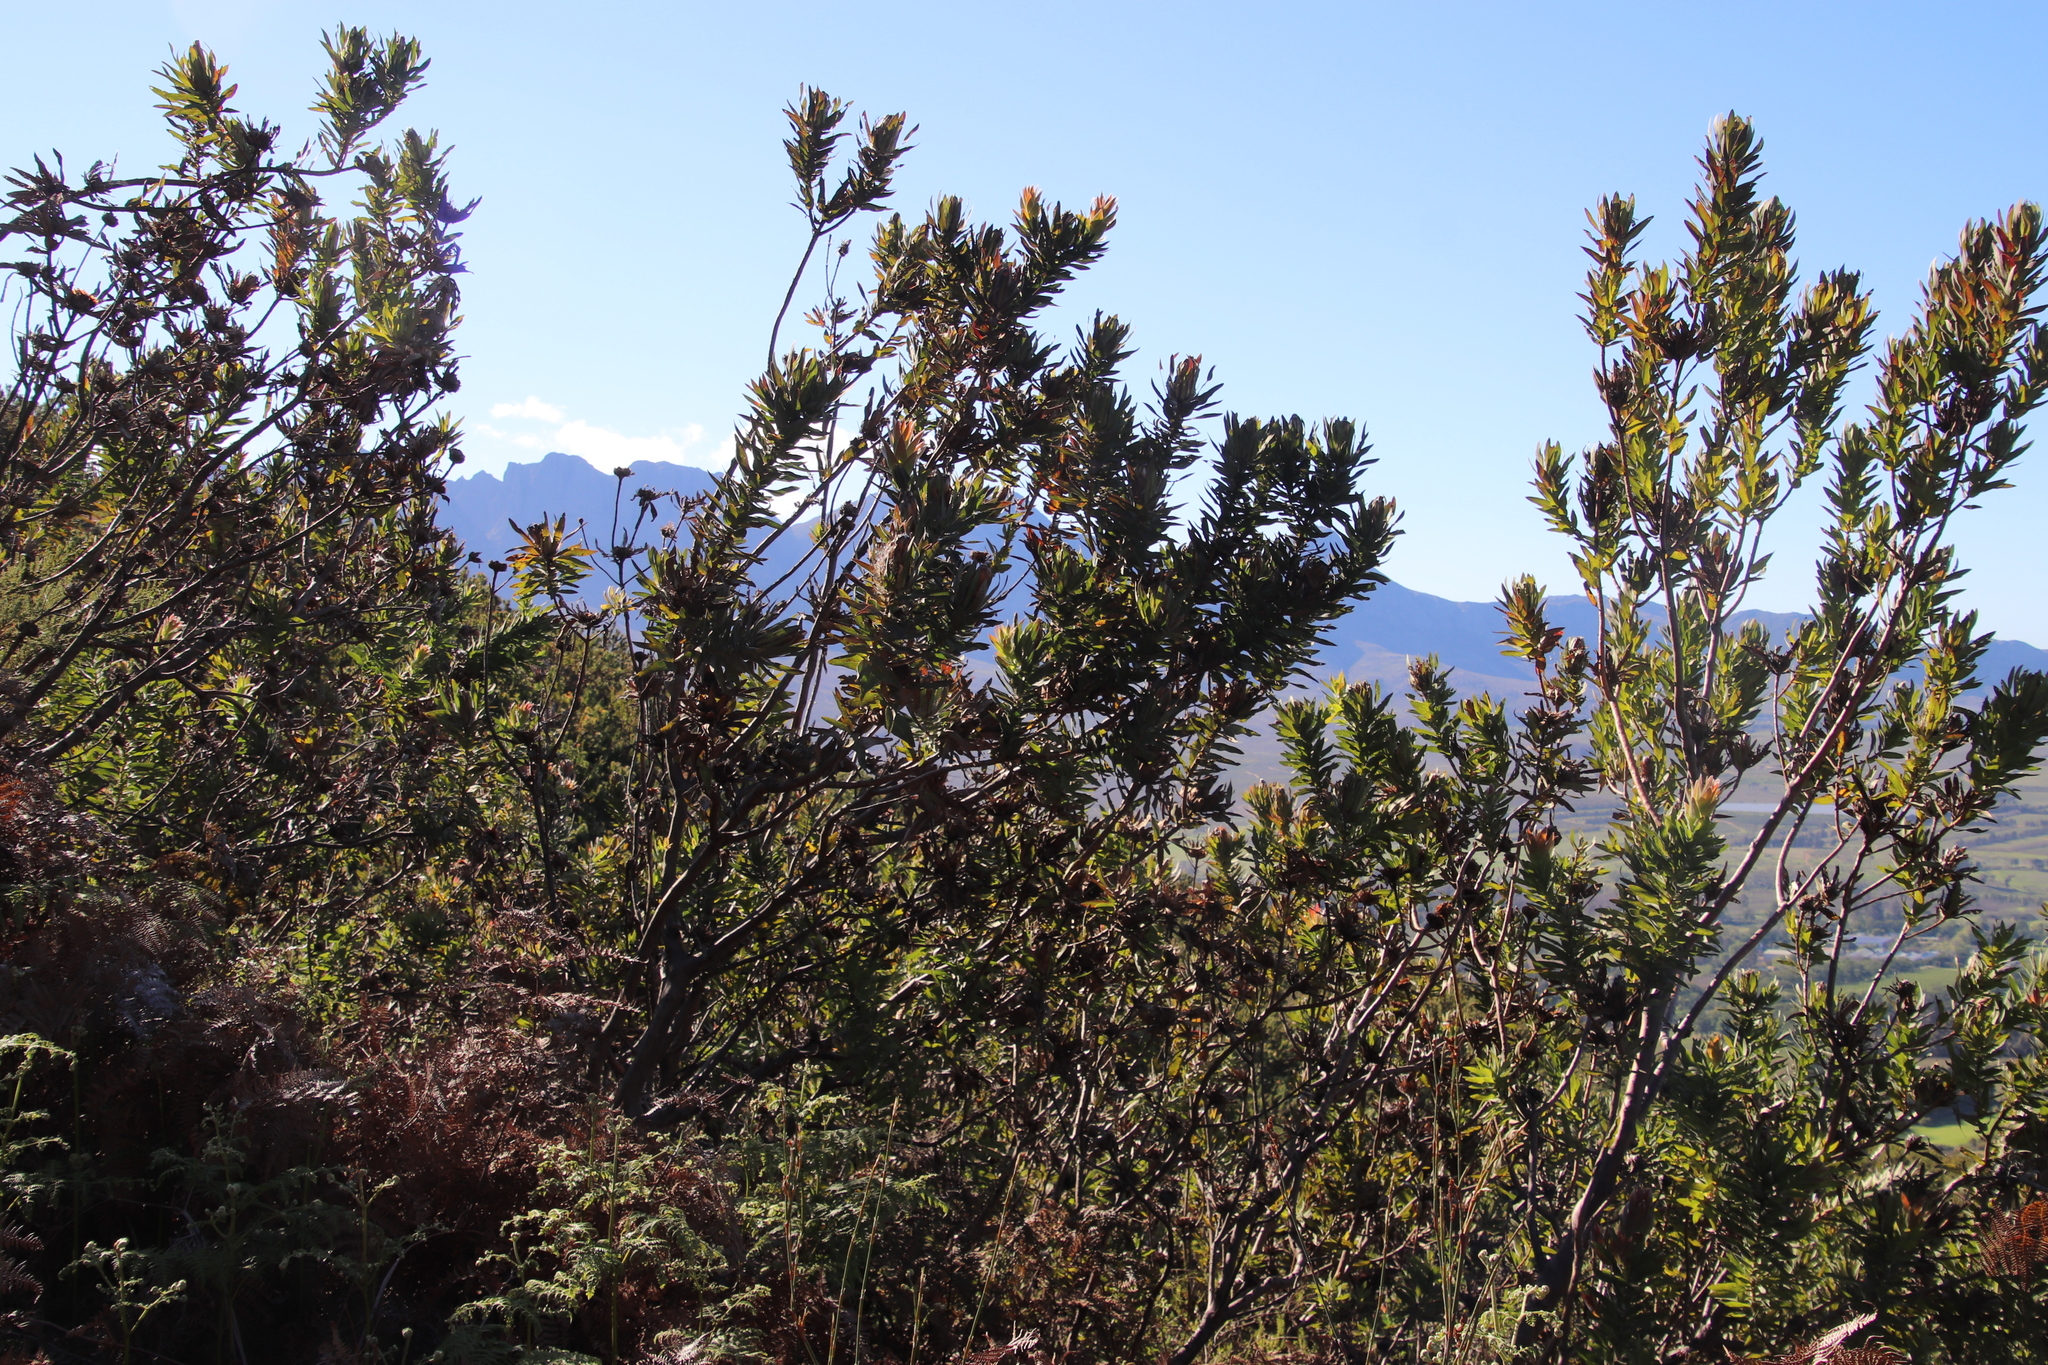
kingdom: Plantae
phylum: Tracheophyta
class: Magnoliopsida
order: Proteales
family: Proteaceae
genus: Protea
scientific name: Protea coronata
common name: Green sugarbush
